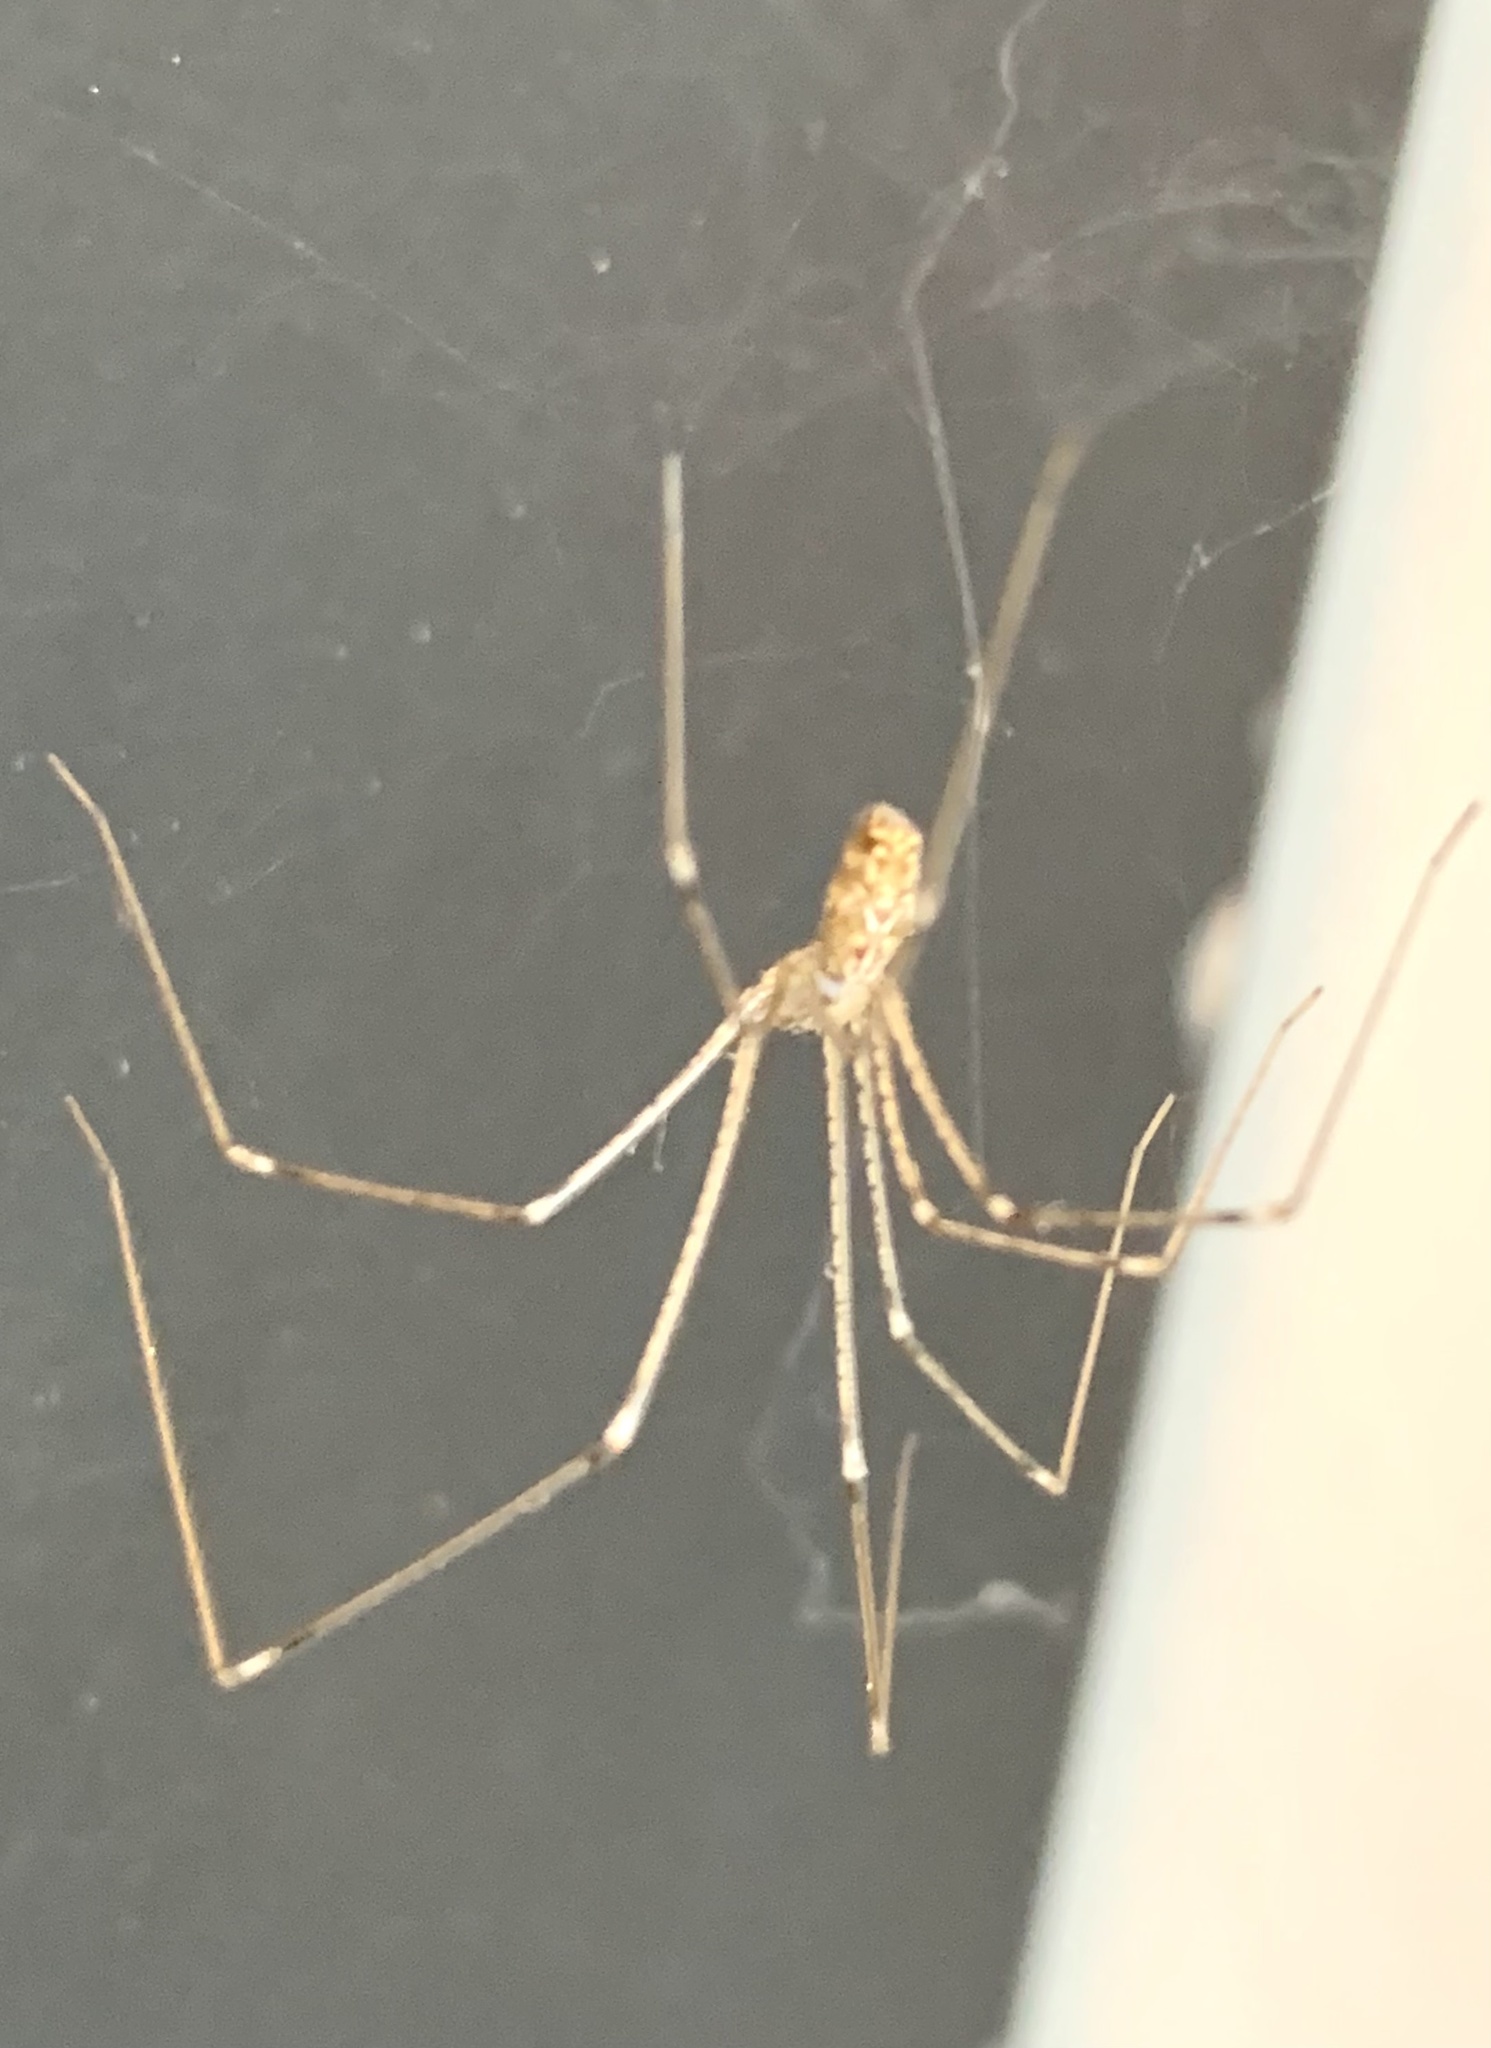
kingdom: Animalia
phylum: Arthropoda
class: Arachnida
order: Araneae
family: Pholcidae
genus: Holocnemus
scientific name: Holocnemus pluchei
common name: Marbled cellar spider
